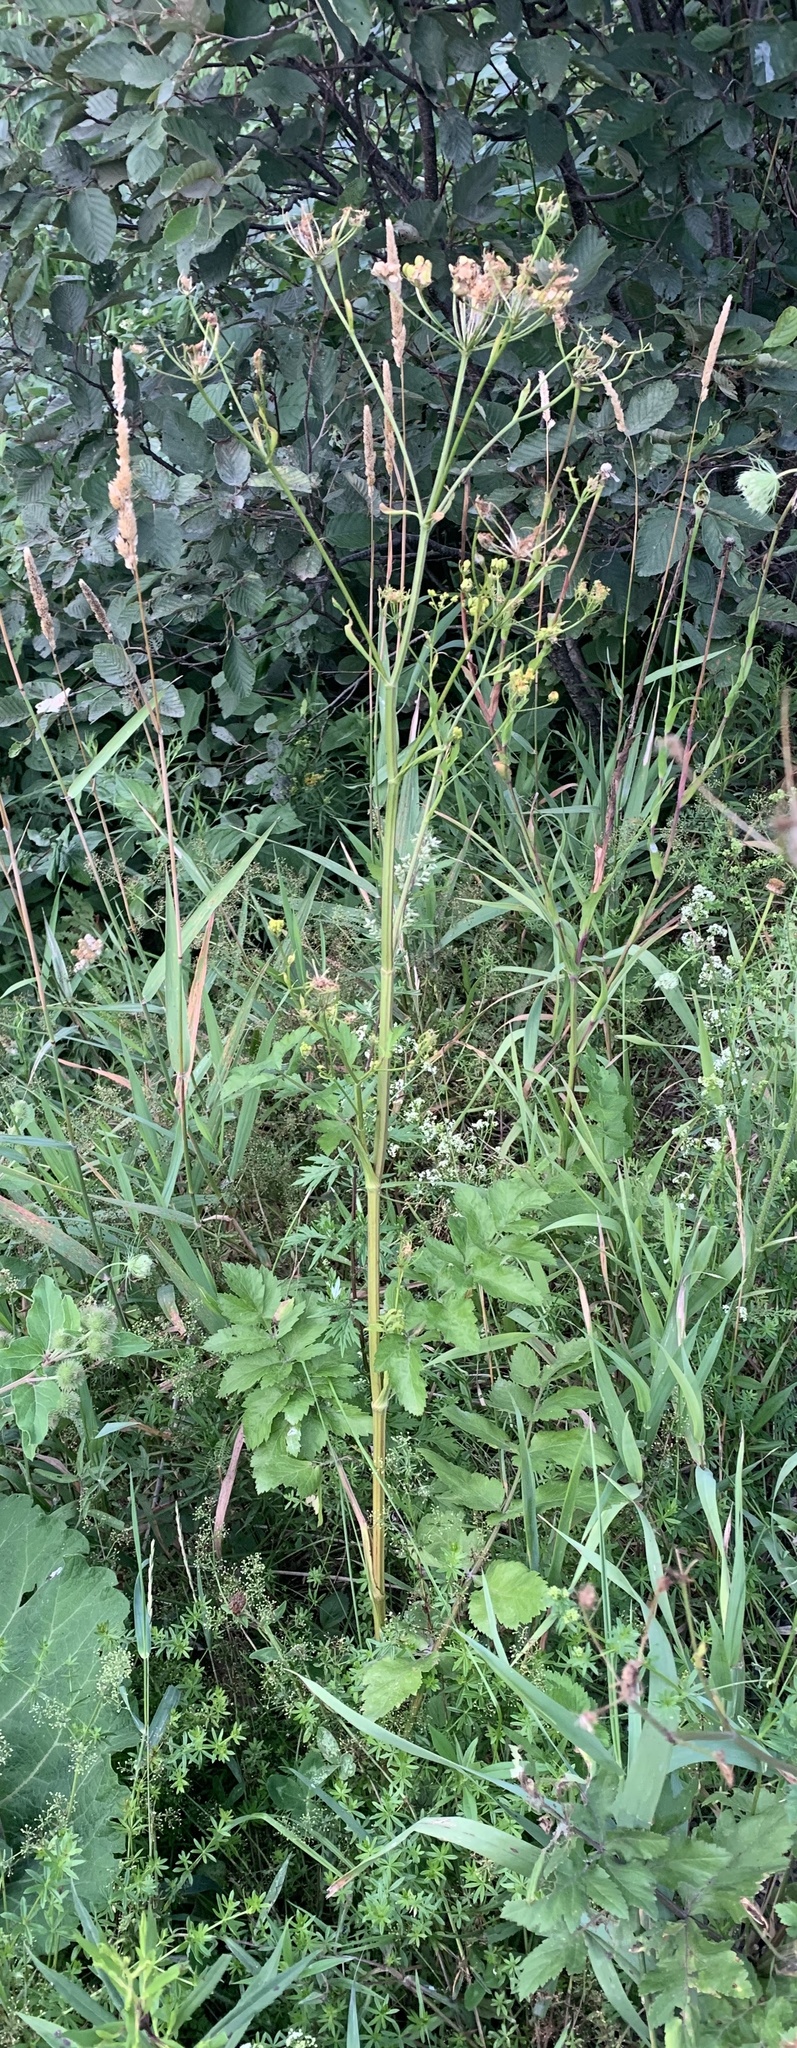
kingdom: Plantae
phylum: Tracheophyta
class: Magnoliopsida
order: Apiales
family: Apiaceae
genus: Pastinaca
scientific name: Pastinaca sativa
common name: Wild parsnip
